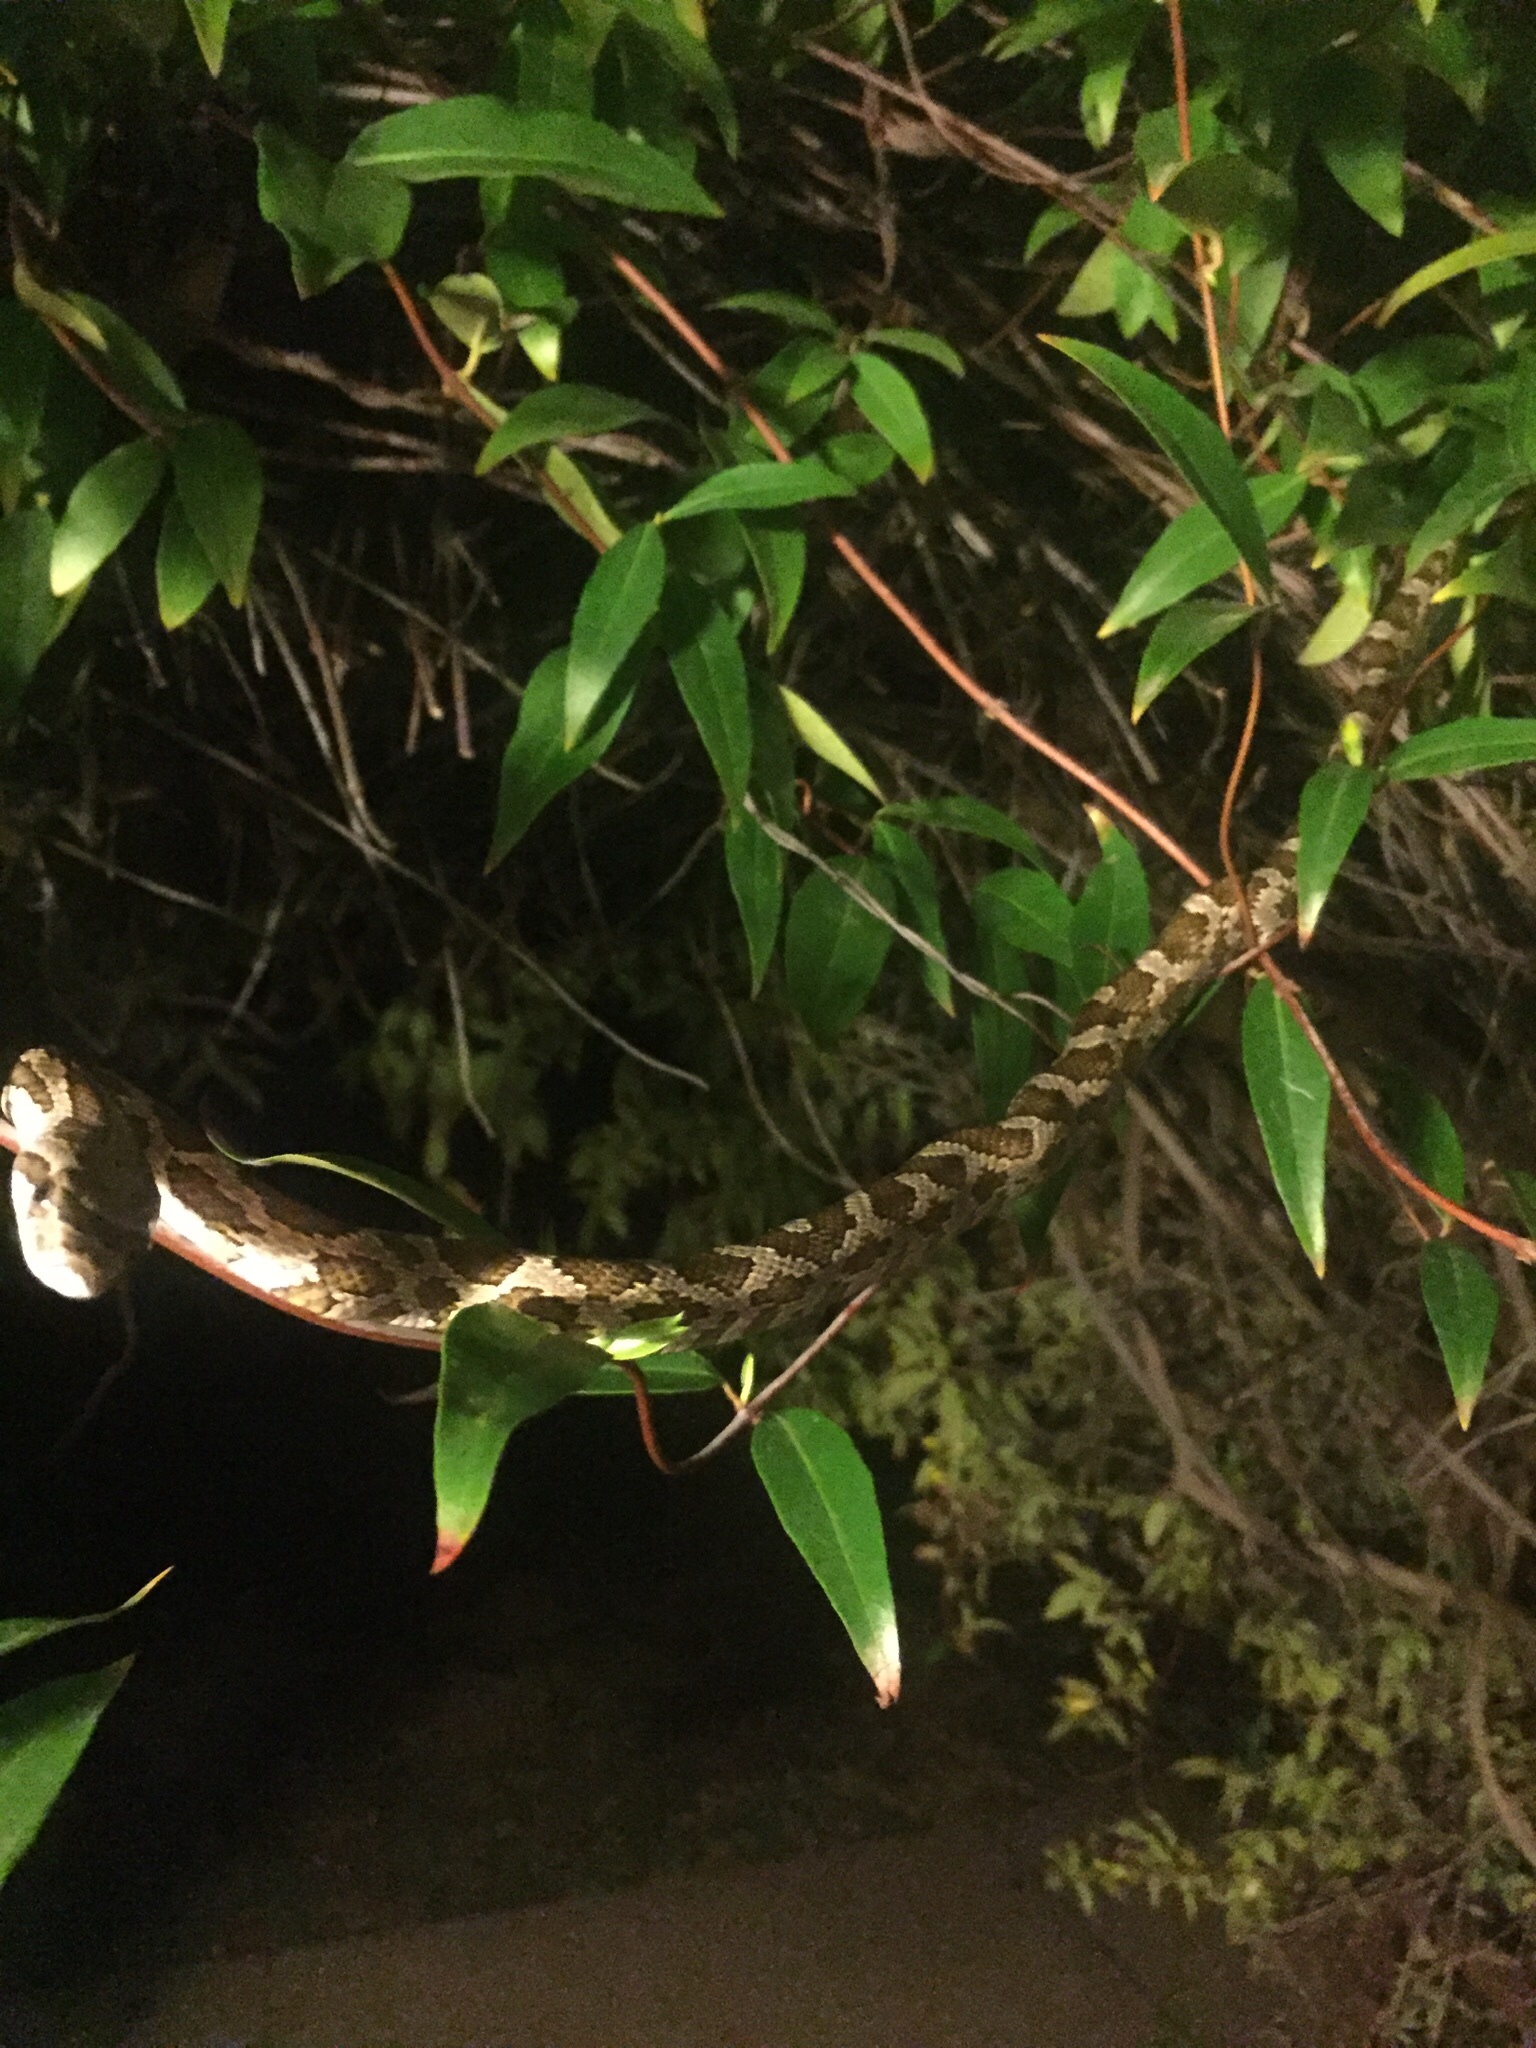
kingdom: Animalia
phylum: Chordata
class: Squamata
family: Colubridae
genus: Pantherophis
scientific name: Pantherophis obsoletus
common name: Black rat snake
